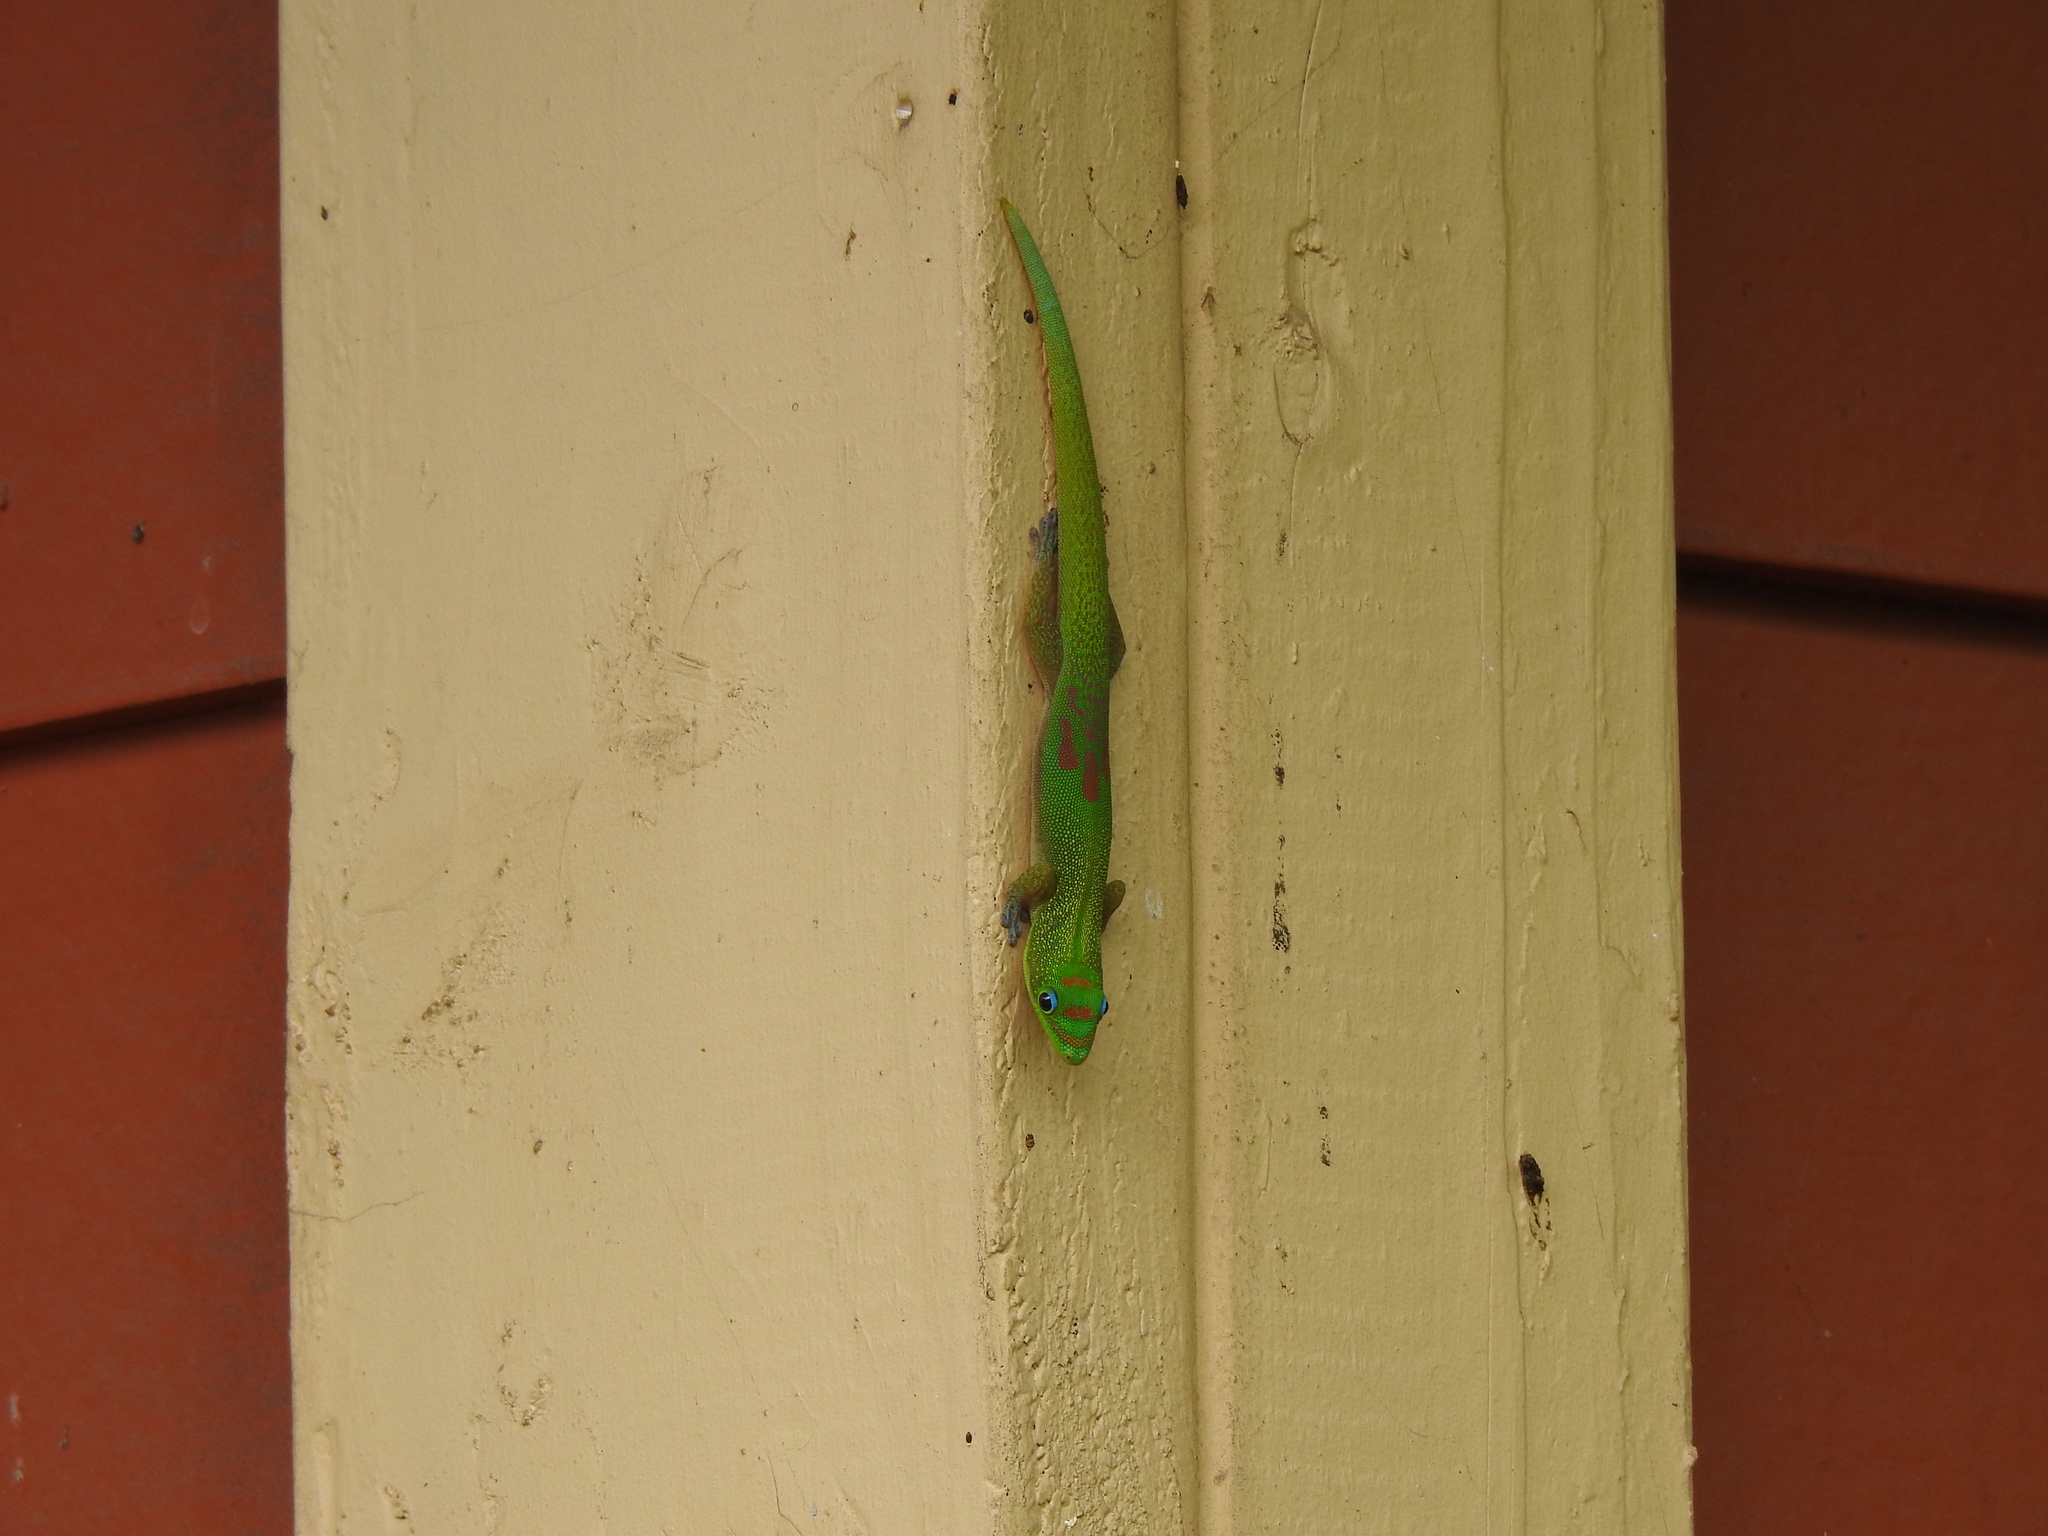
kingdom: Animalia
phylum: Chordata
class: Squamata
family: Gekkonidae
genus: Phelsuma
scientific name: Phelsuma laticauda
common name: Gold dust day gecko
